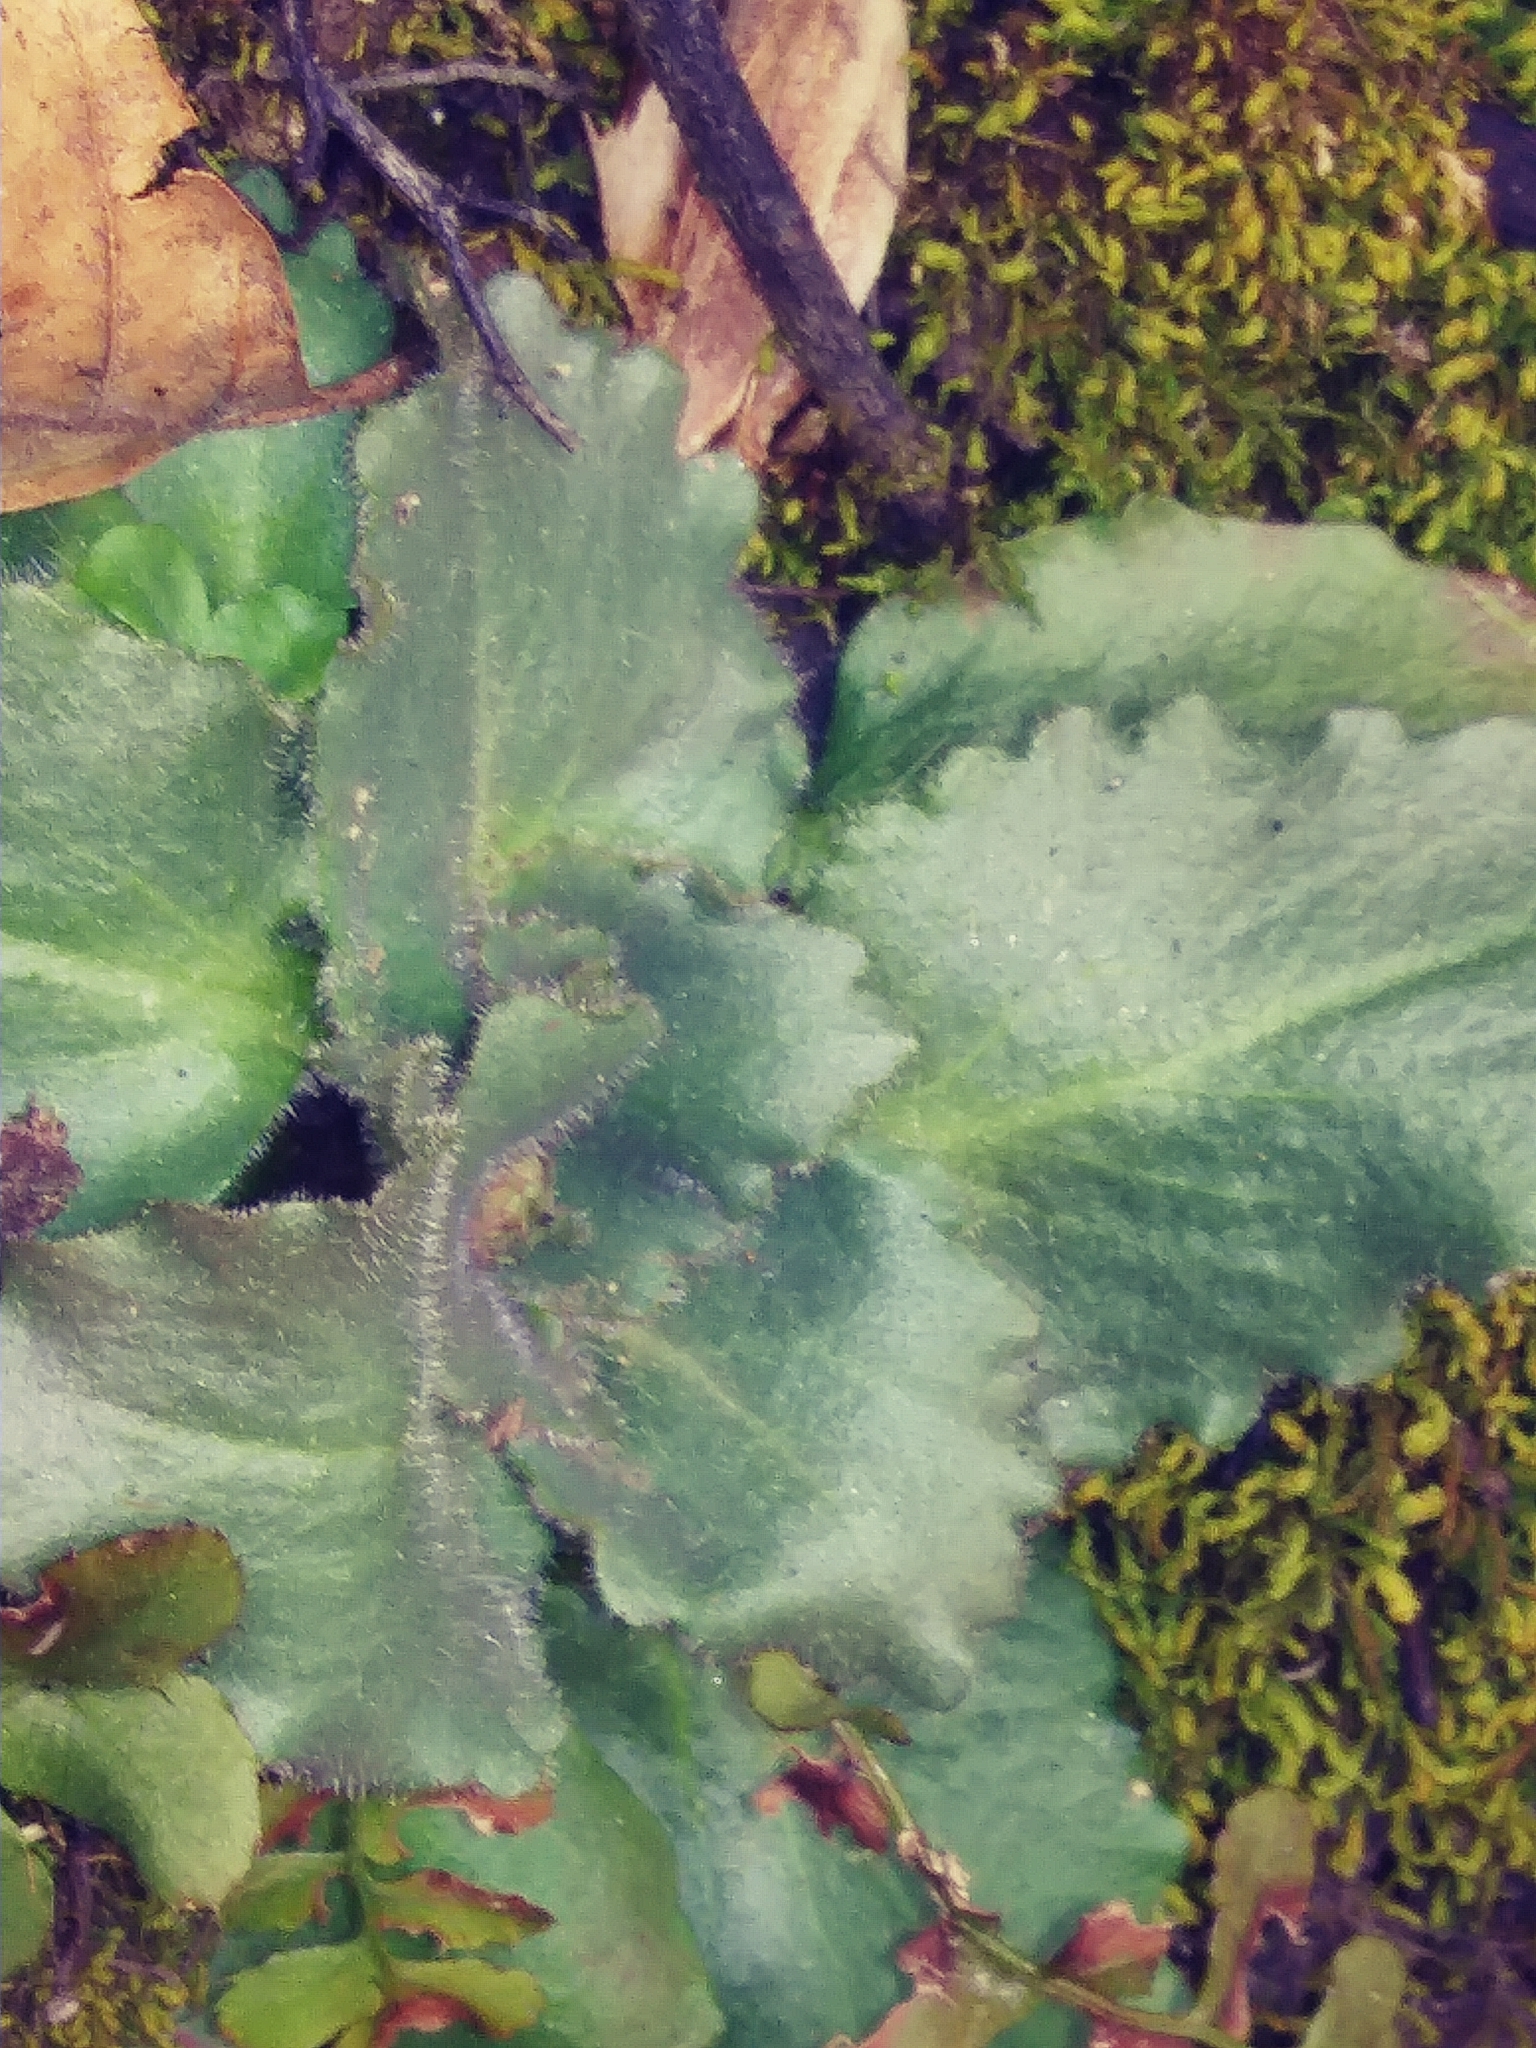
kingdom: Plantae
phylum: Tracheophyta
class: Magnoliopsida
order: Saxifragales
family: Saxifragaceae
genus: Micranthes
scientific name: Micranthes virginiensis
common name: Early saxifrage
